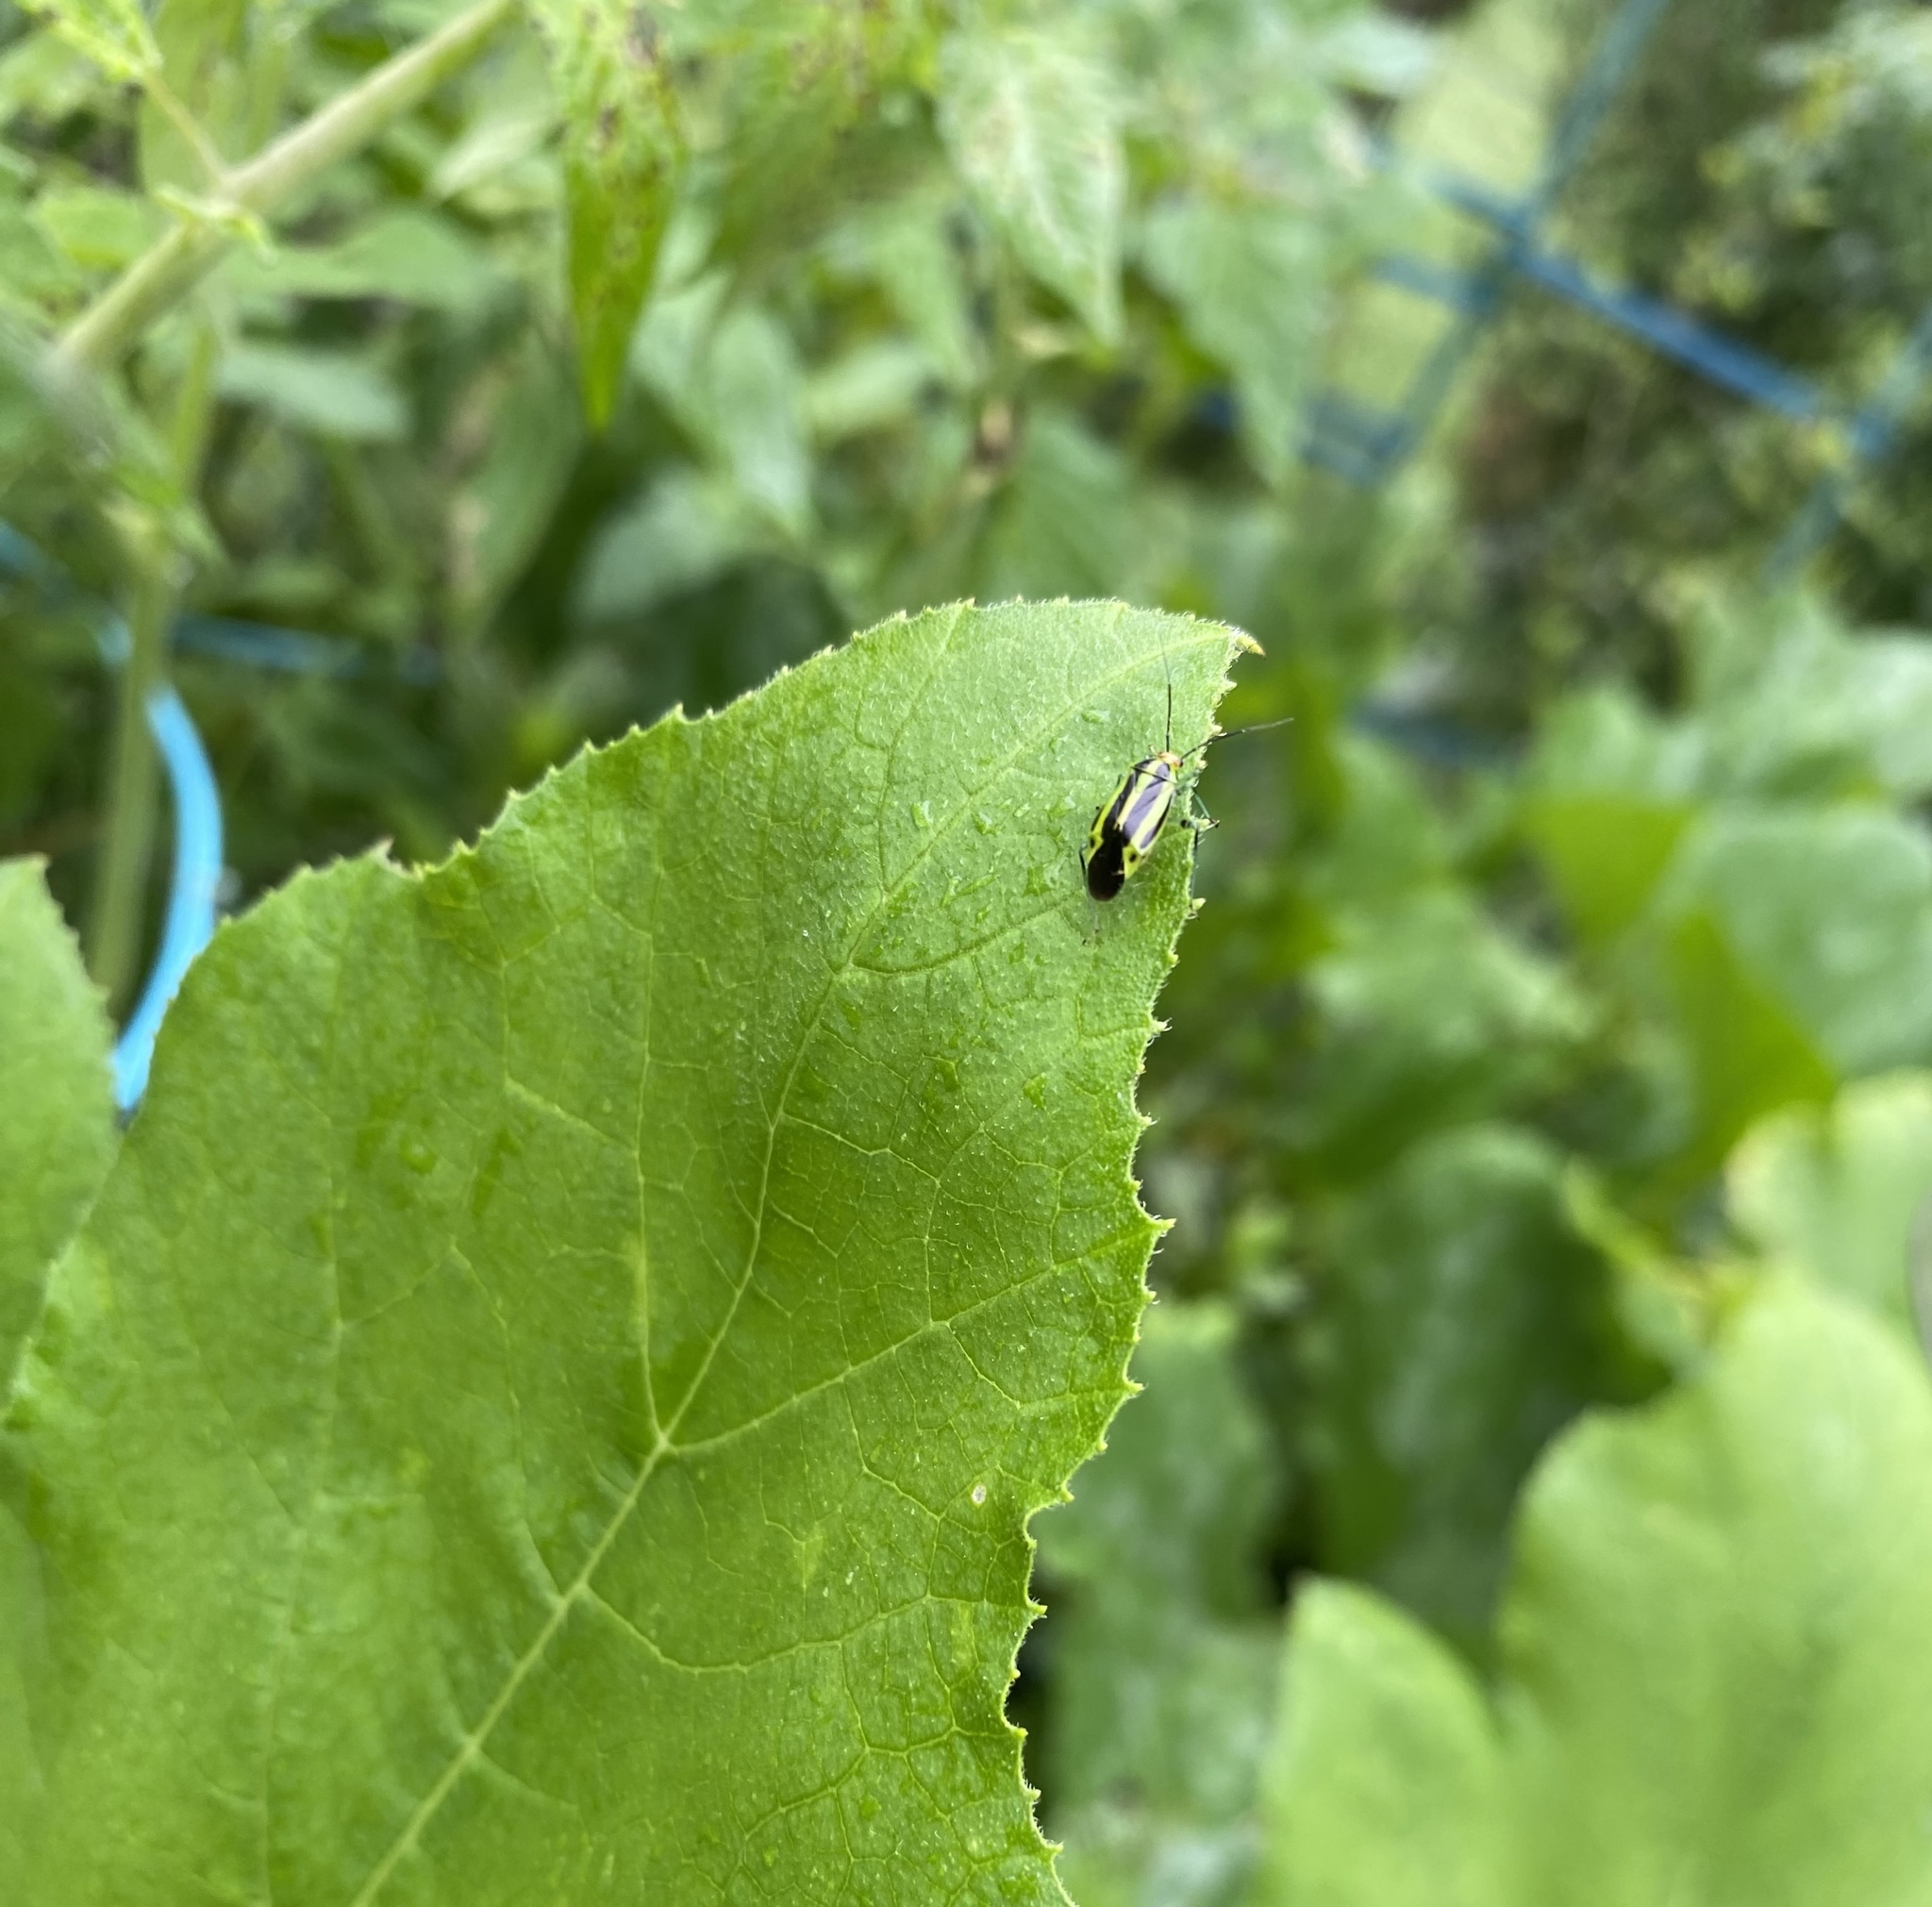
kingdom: Animalia
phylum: Arthropoda
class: Insecta
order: Hemiptera
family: Miridae
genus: Poecilocapsus
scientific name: Poecilocapsus lineatus
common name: Four-lined plant bug
